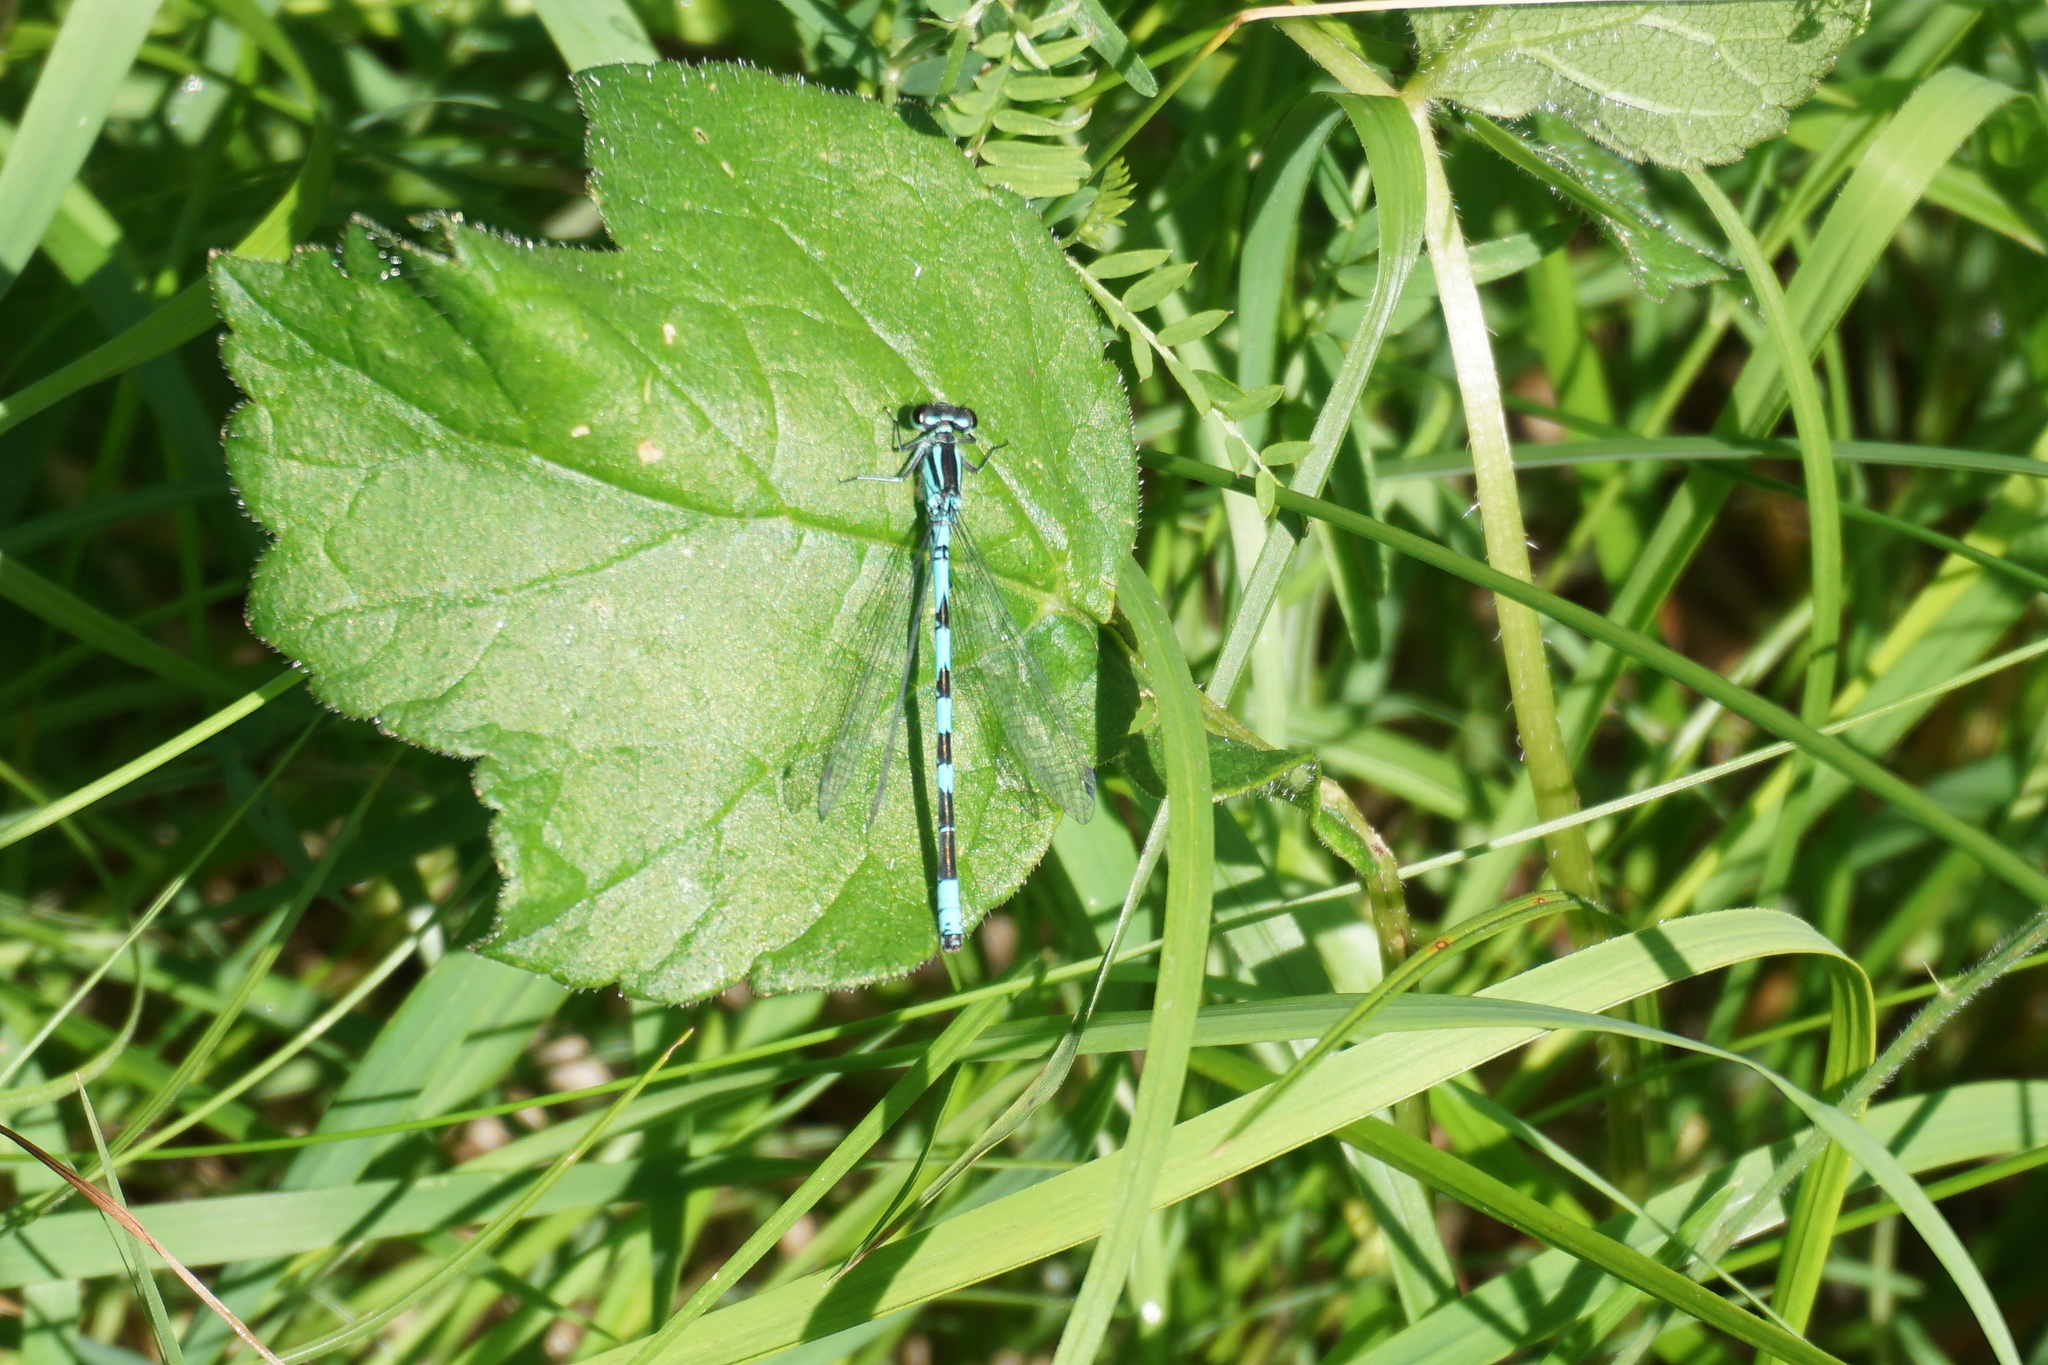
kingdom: Animalia
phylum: Arthropoda
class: Insecta
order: Odonata
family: Coenagrionidae
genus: Coenagrion
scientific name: Coenagrion hastulatum
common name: Spearhead bluet
